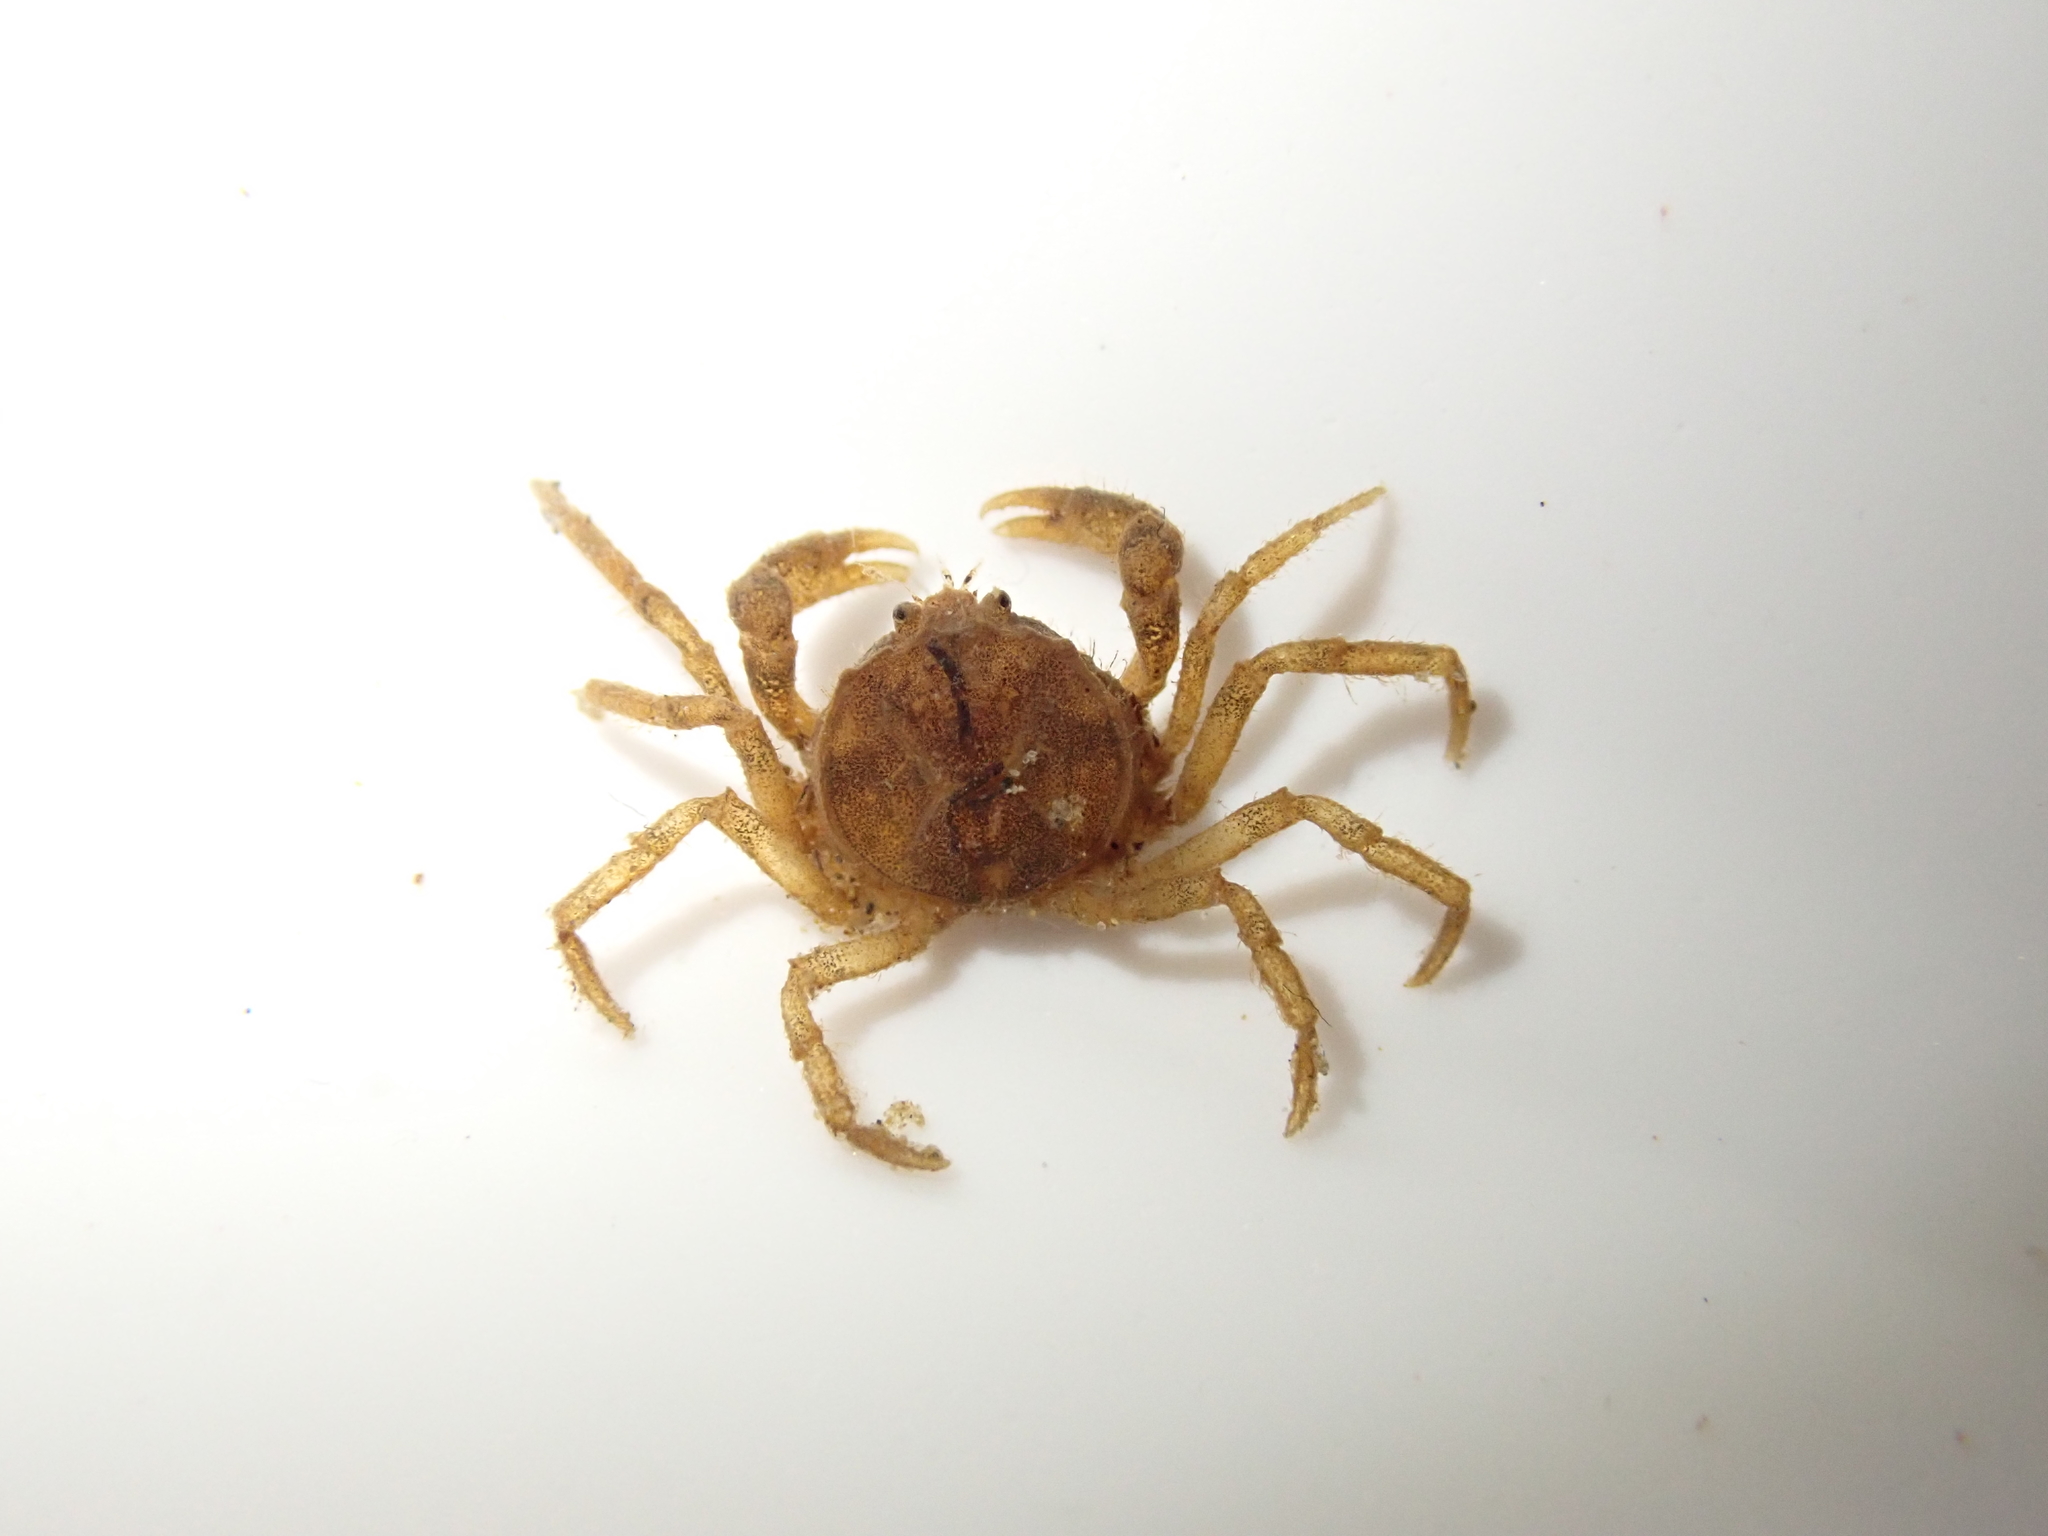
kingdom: Animalia
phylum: Arthropoda
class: Malacostraca
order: Decapoda
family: Hymenosomatidae
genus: Amarinus
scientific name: Amarinus lacustris
